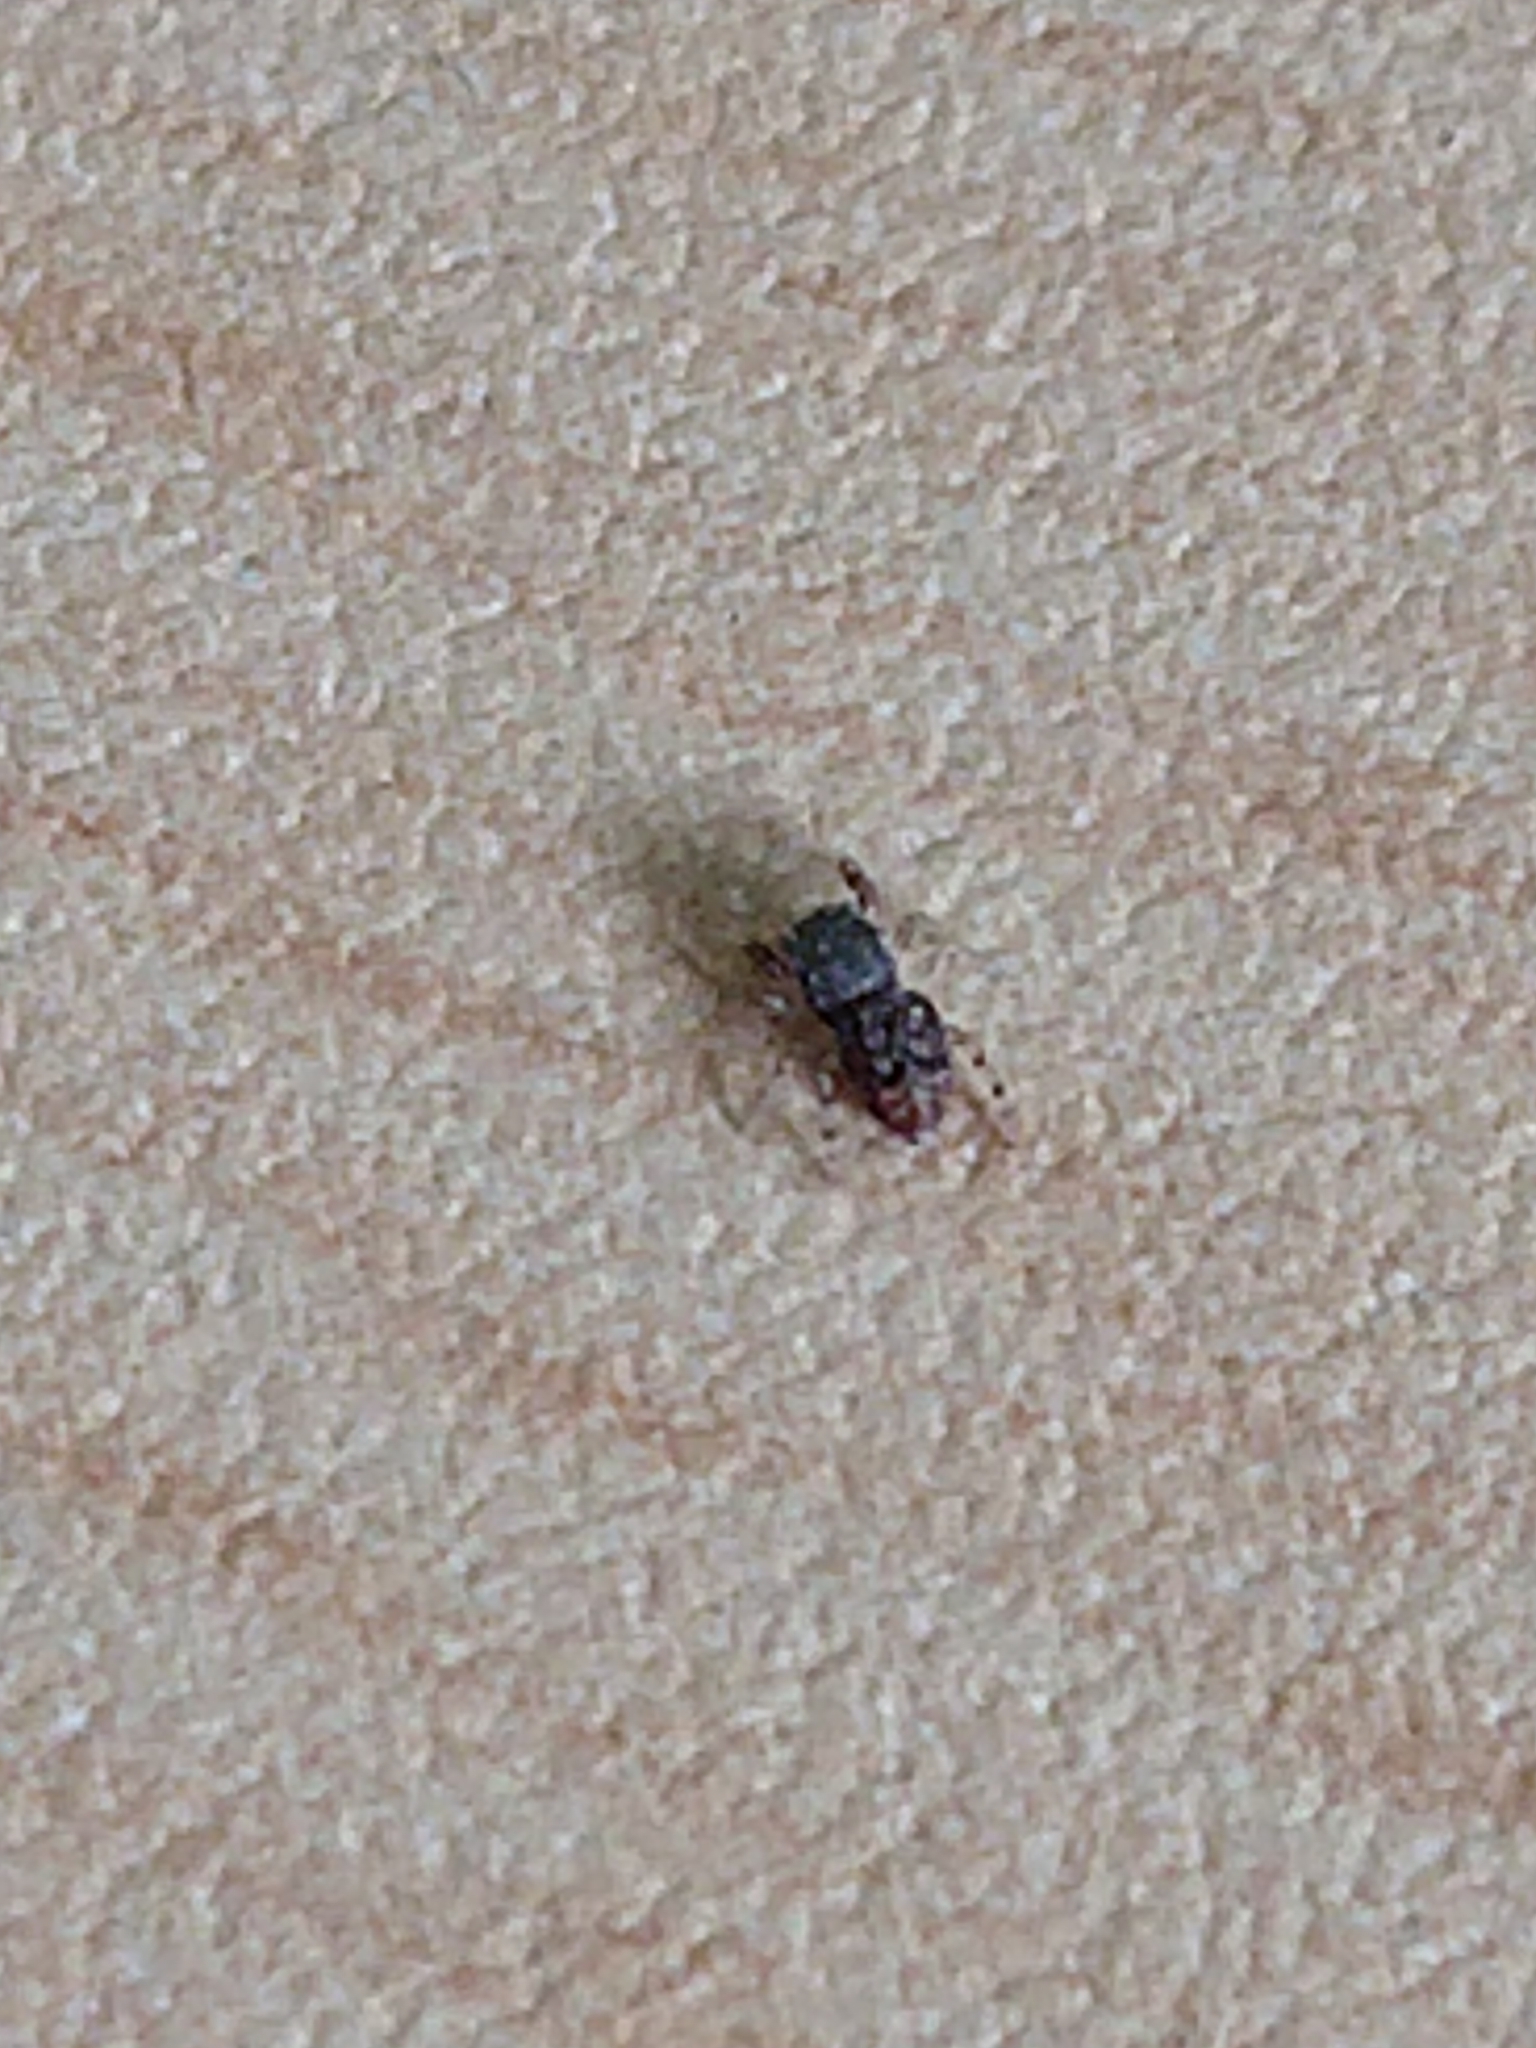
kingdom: Animalia
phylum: Arthropoda
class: Arachnida
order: Araneae
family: Salticidae
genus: Ballus
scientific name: Ballus chalybeius
